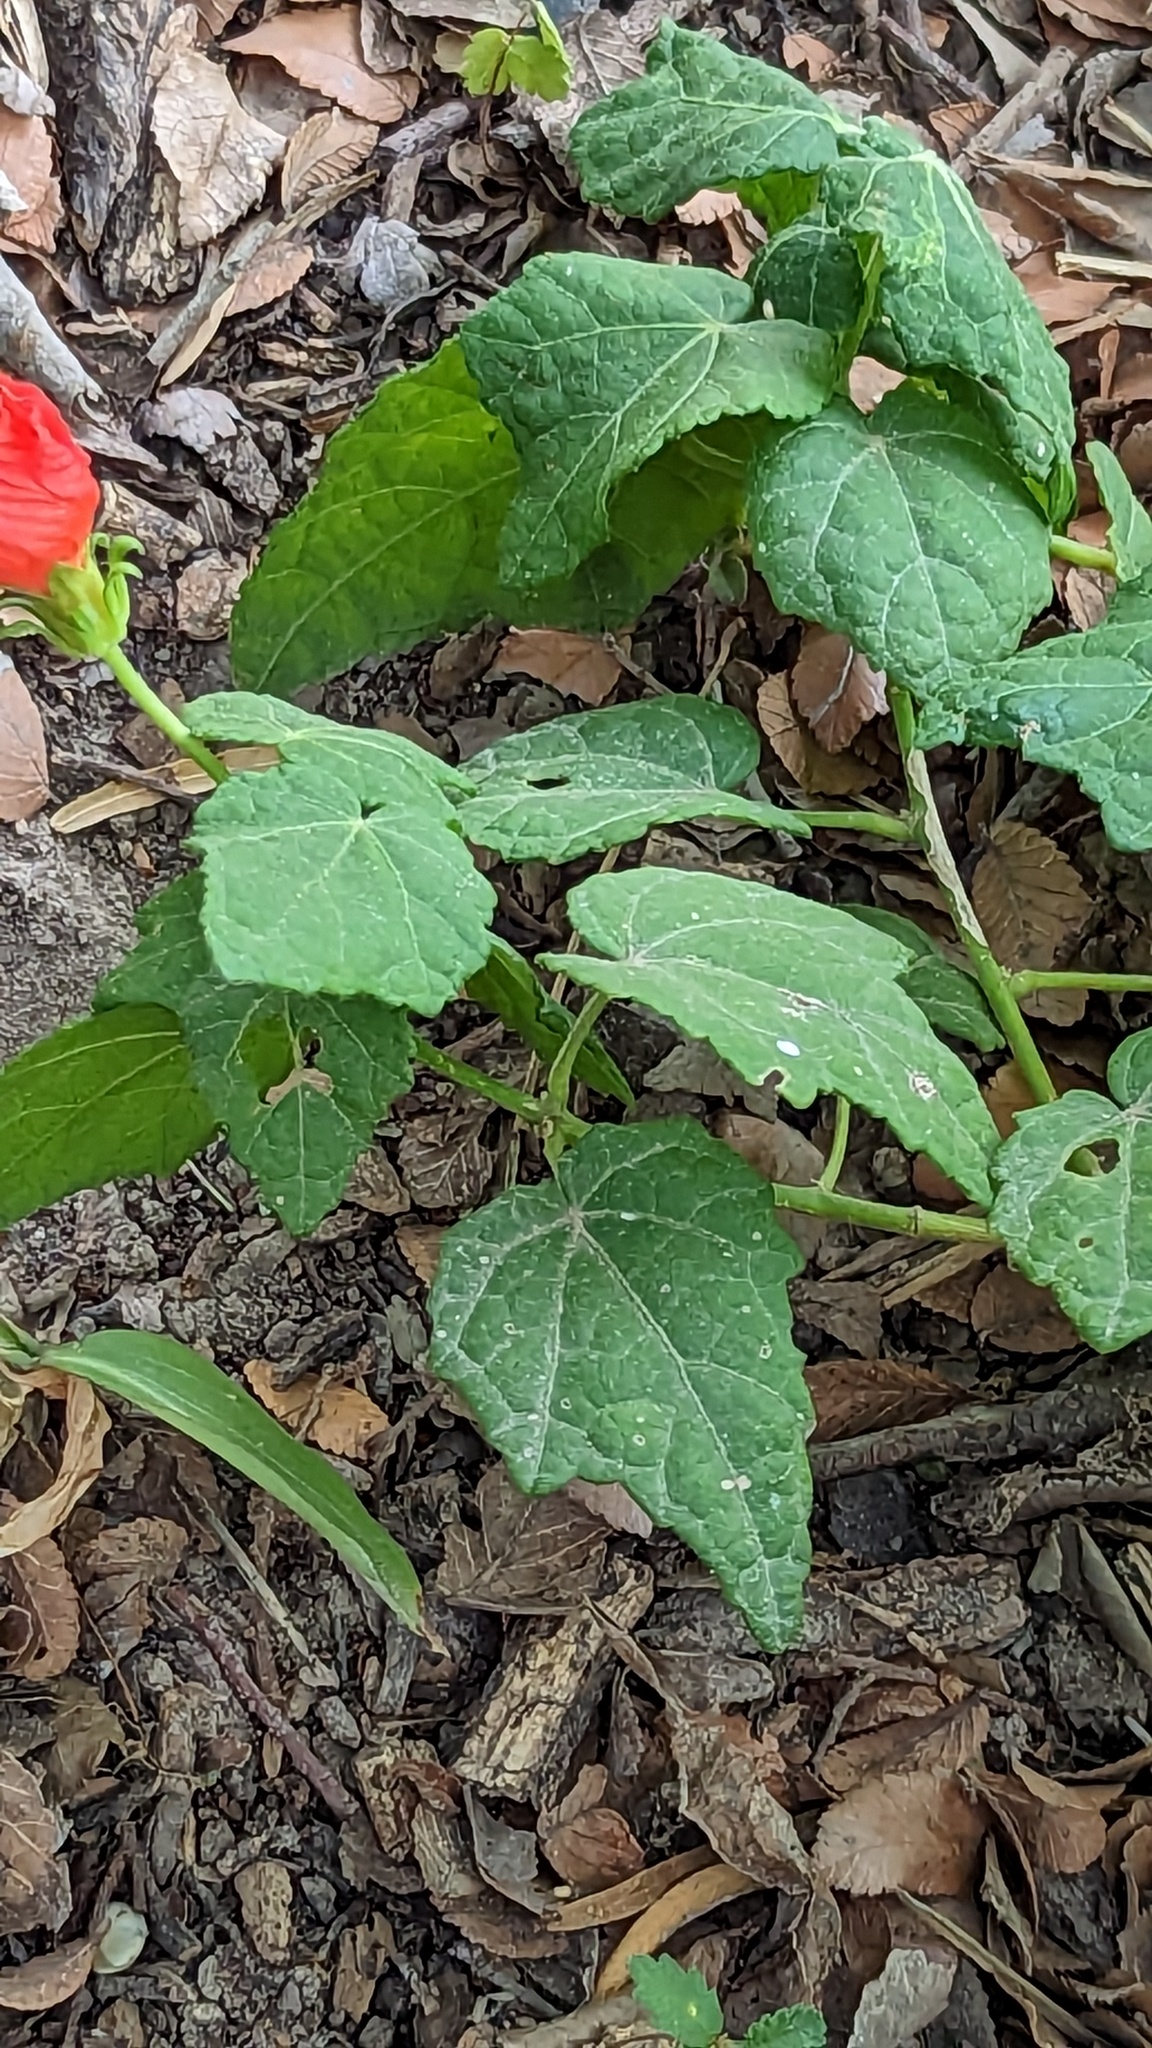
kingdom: Plantae
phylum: Tracheophyta
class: Magnoliopsida
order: Malvales
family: Malvaceae
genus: Malvaviscus
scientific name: Malvaviscus arboreus
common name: Wax mallow
